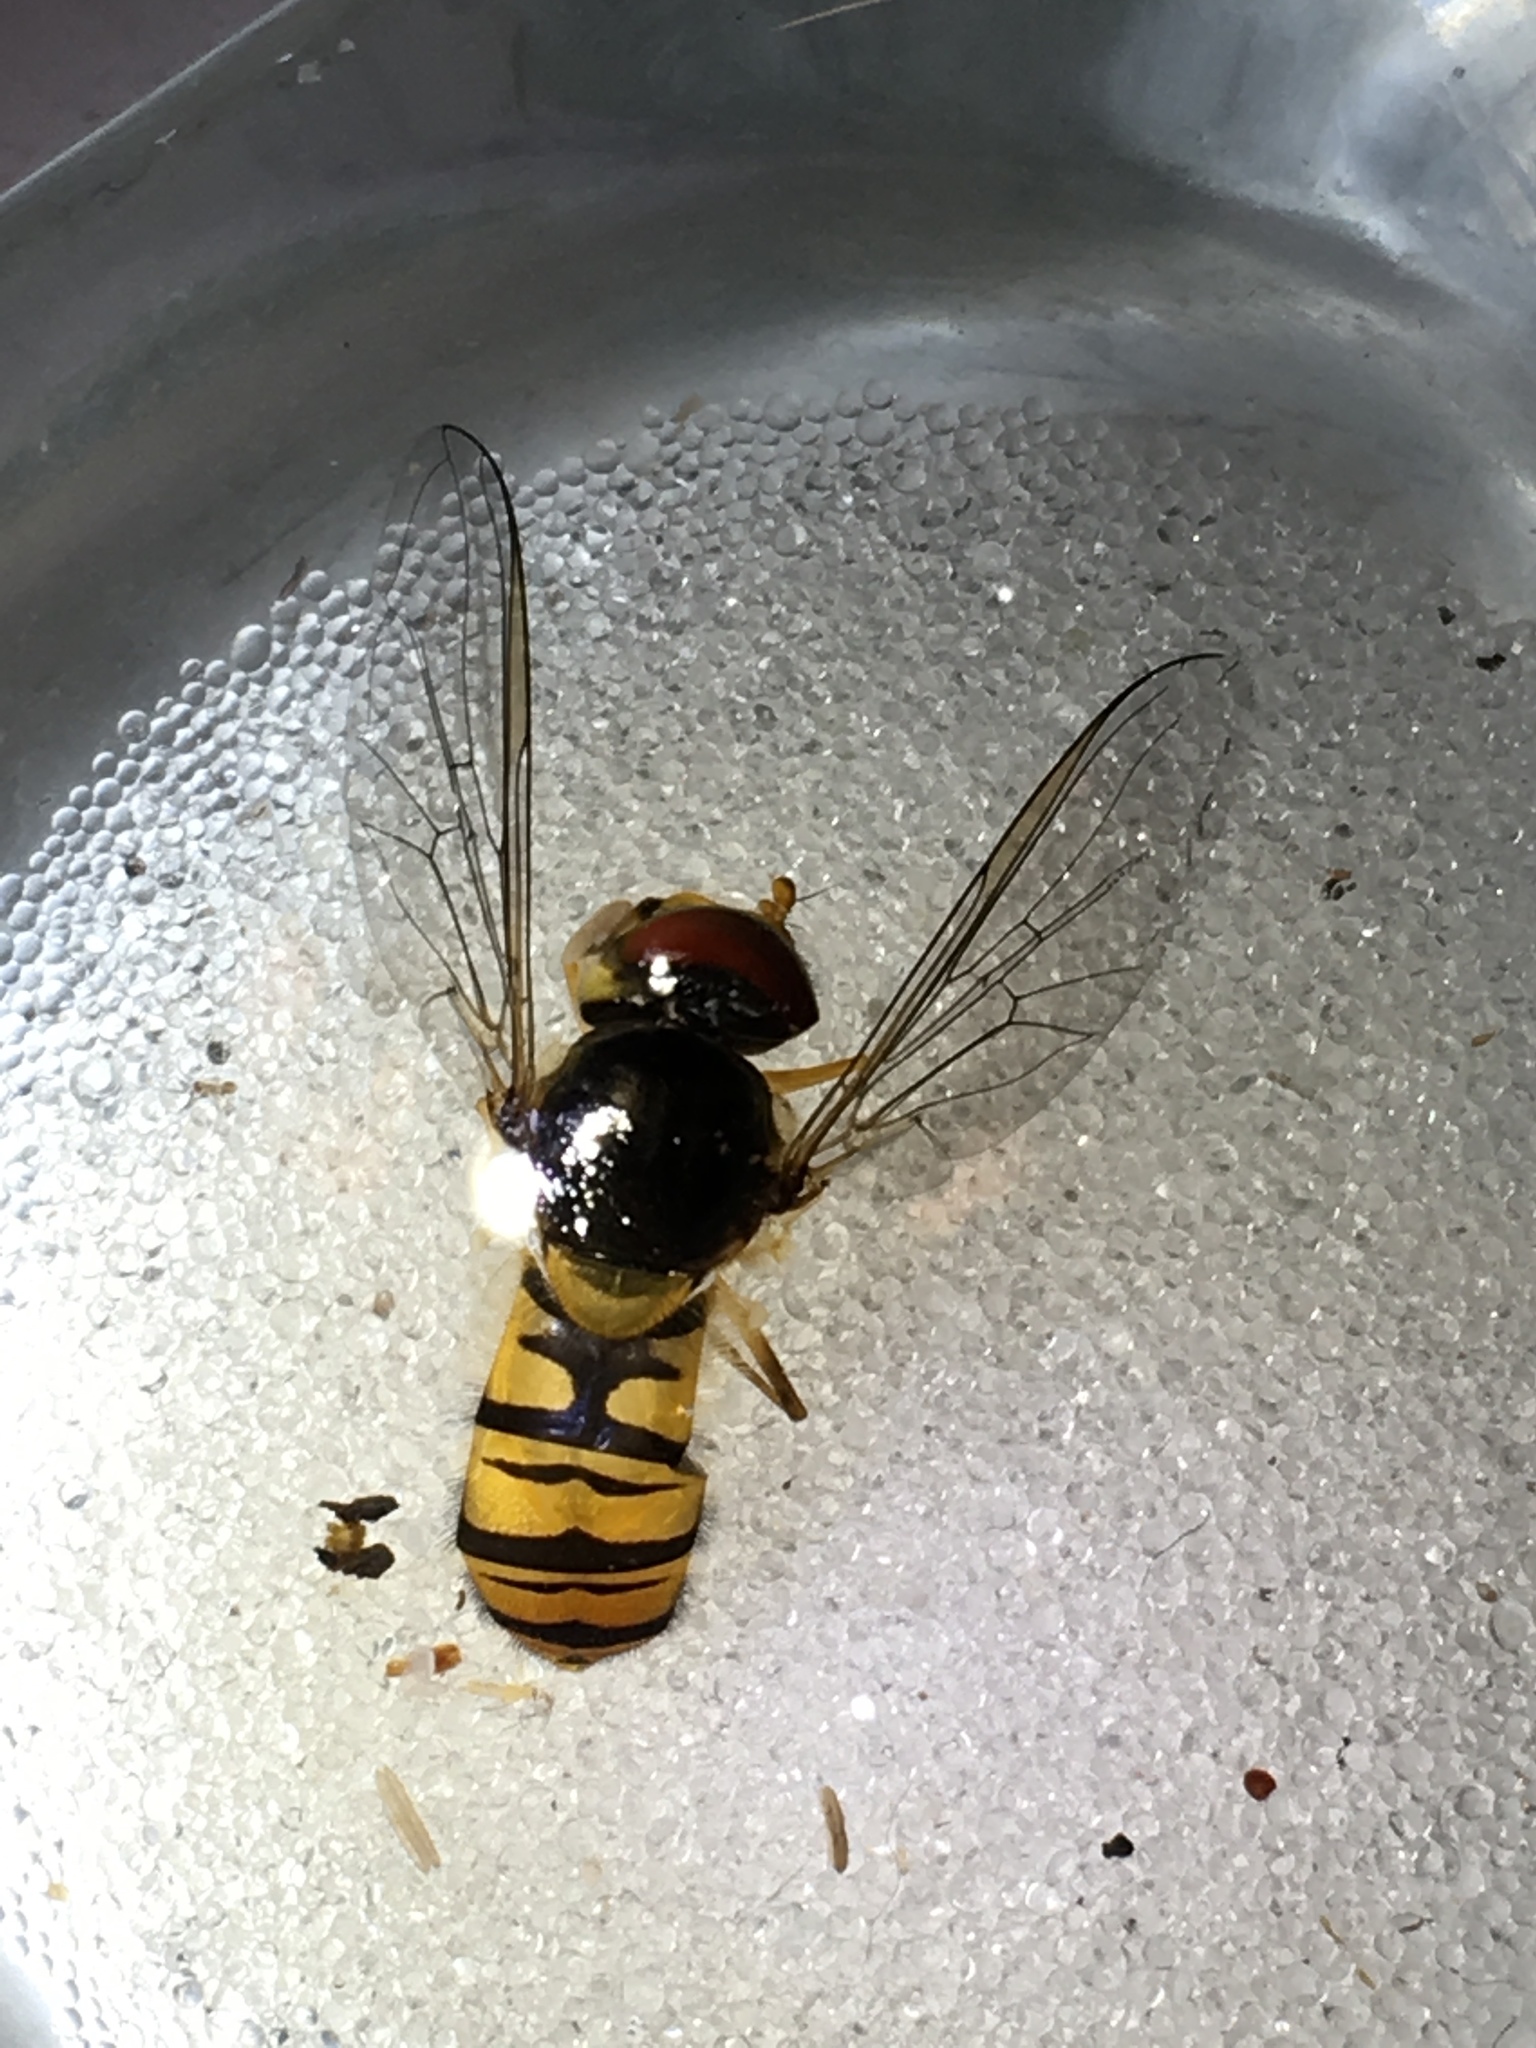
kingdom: Animalia
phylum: Arthropoda
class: Insecta
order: Diptera
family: Syrphidae
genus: Episyrphus
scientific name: Episyrphus balteatus
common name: Marmalade hoverfly
